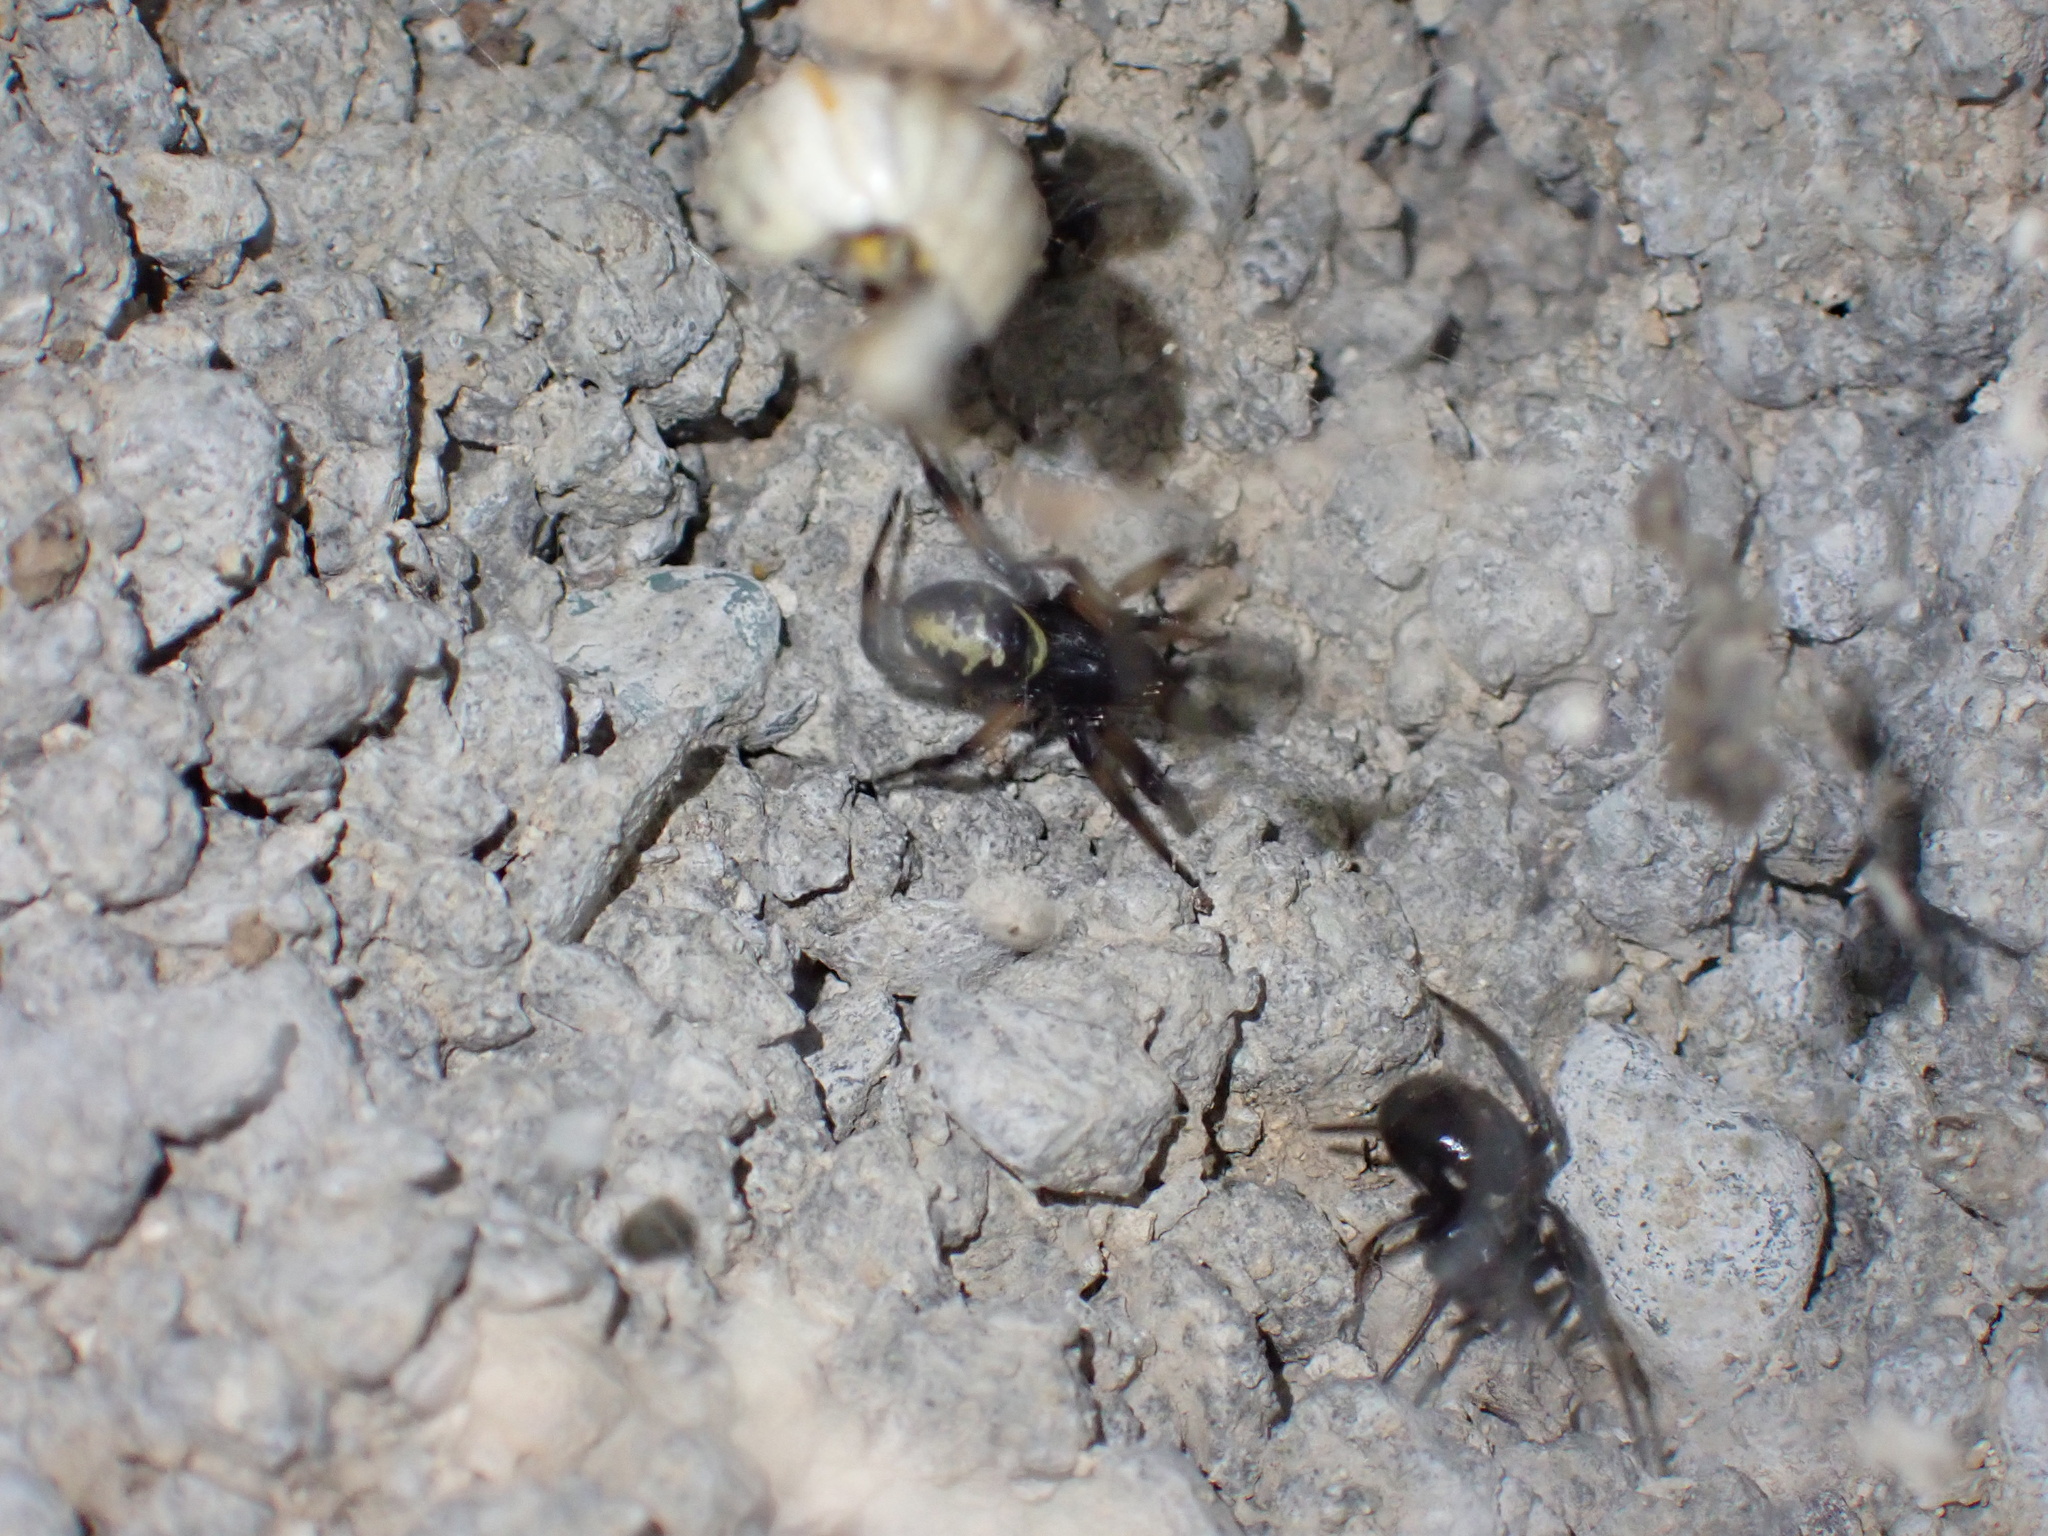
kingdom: Animalia
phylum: Arthropoda
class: Arachnida
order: Araneae
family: Theridiidae
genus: Steatoda
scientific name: Steatoda paykulliana
